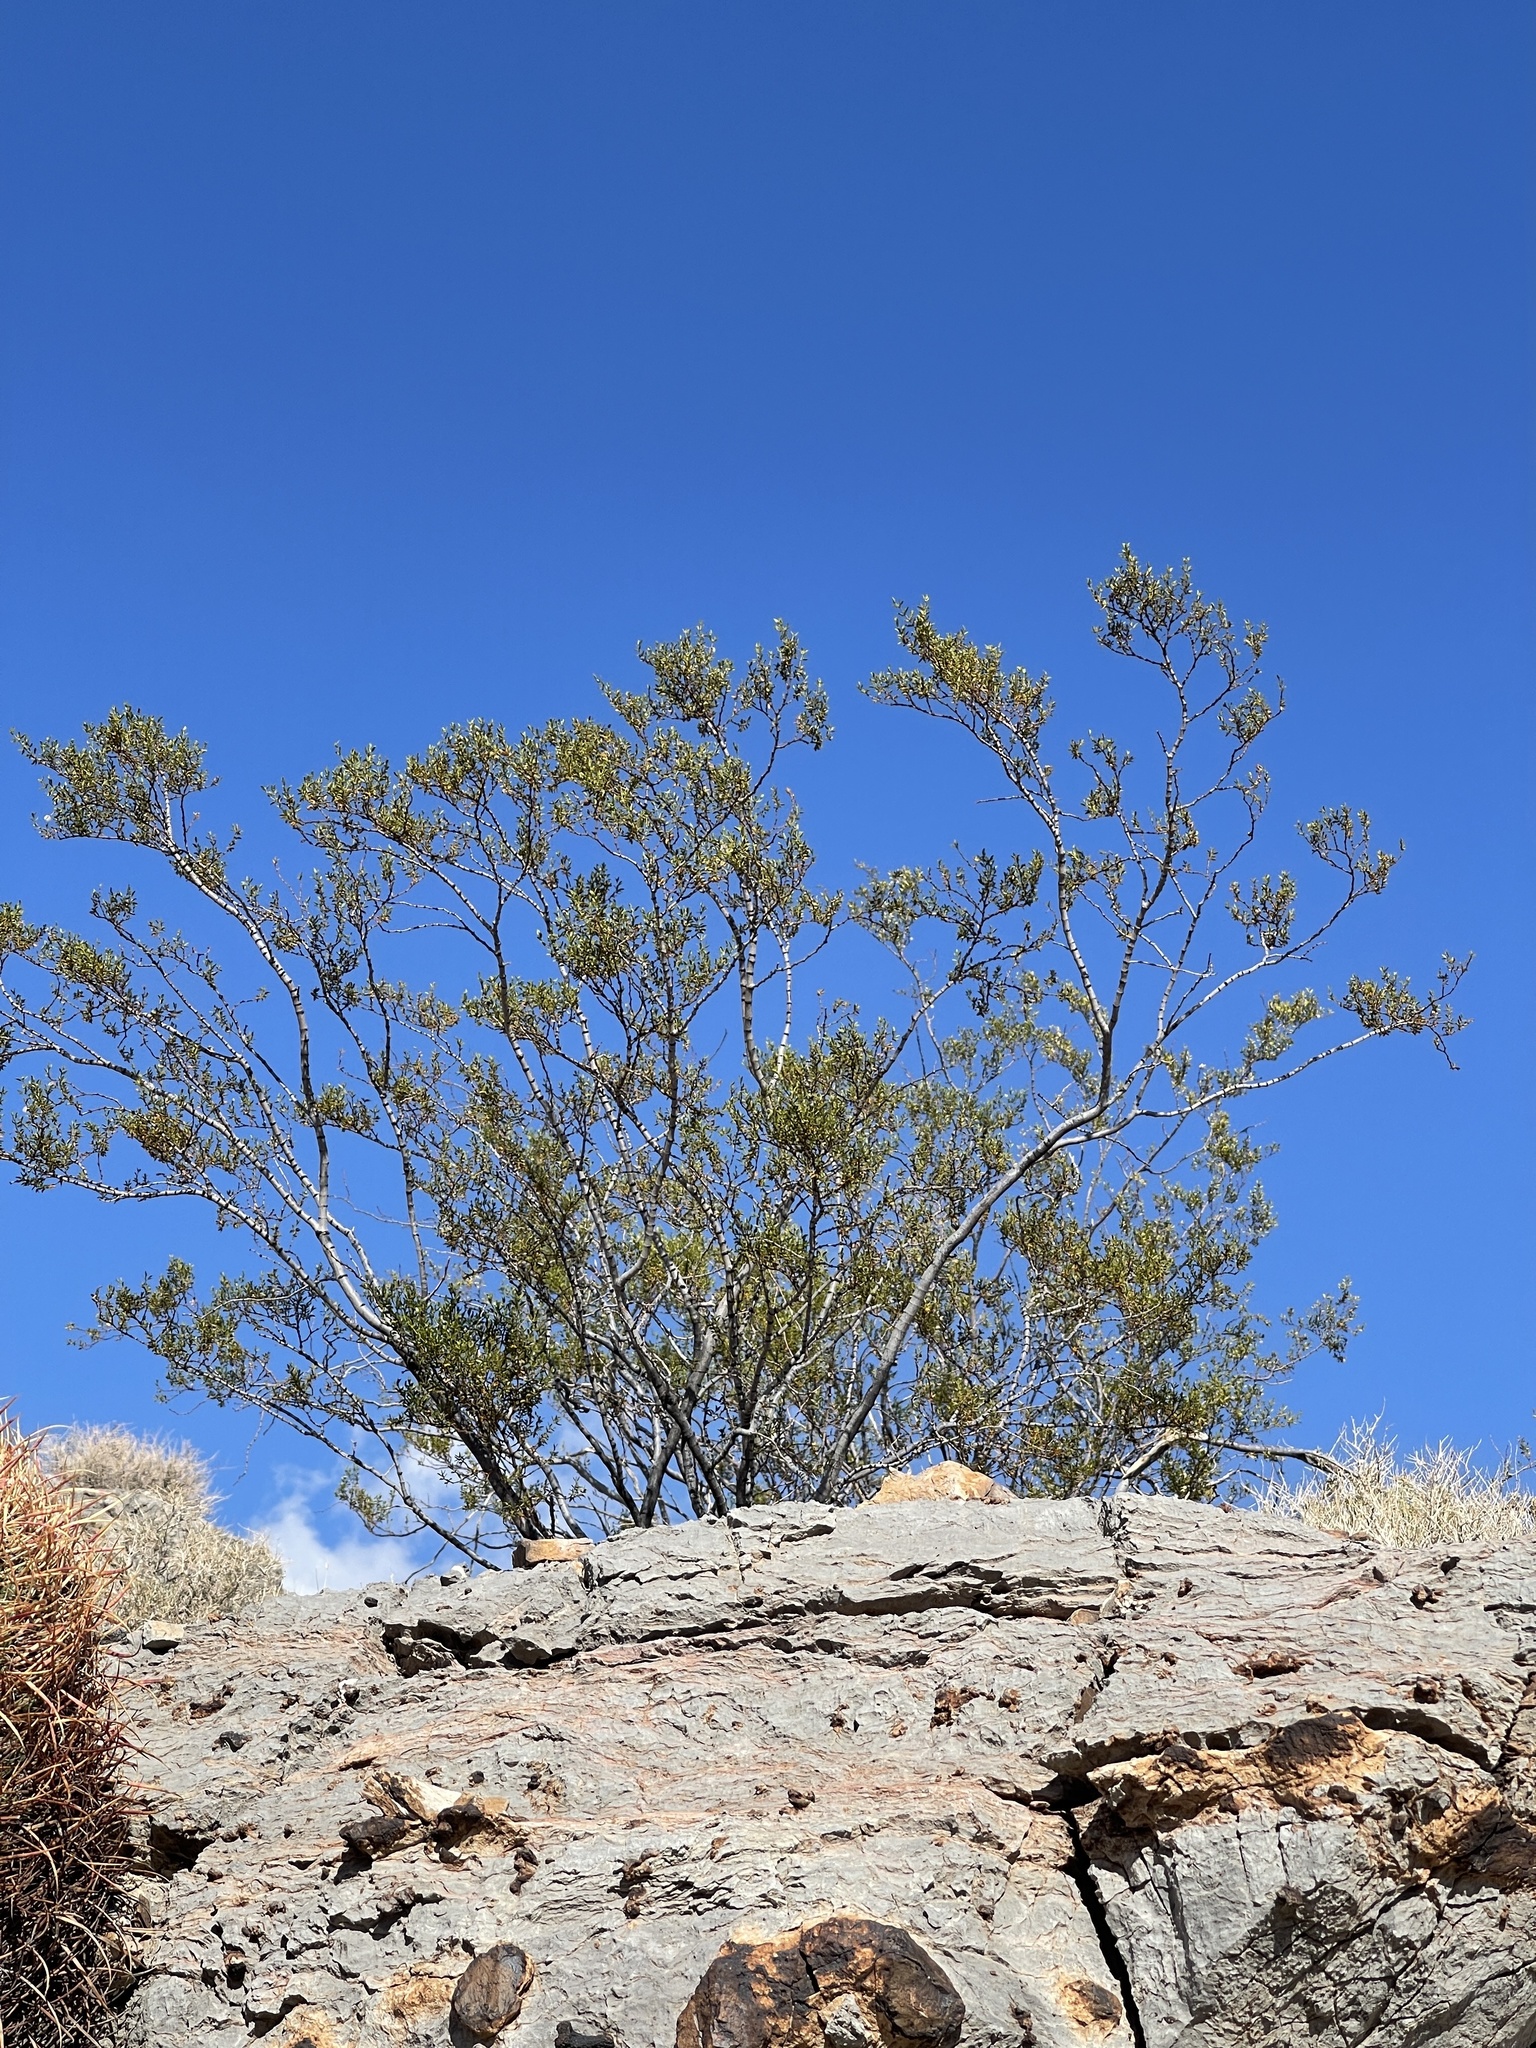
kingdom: Plantae
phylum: Tracheophyta
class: Magnoliopsida
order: Zygophyllales
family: Zygophyllaceae
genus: Larrea
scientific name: Larrea tridentata
